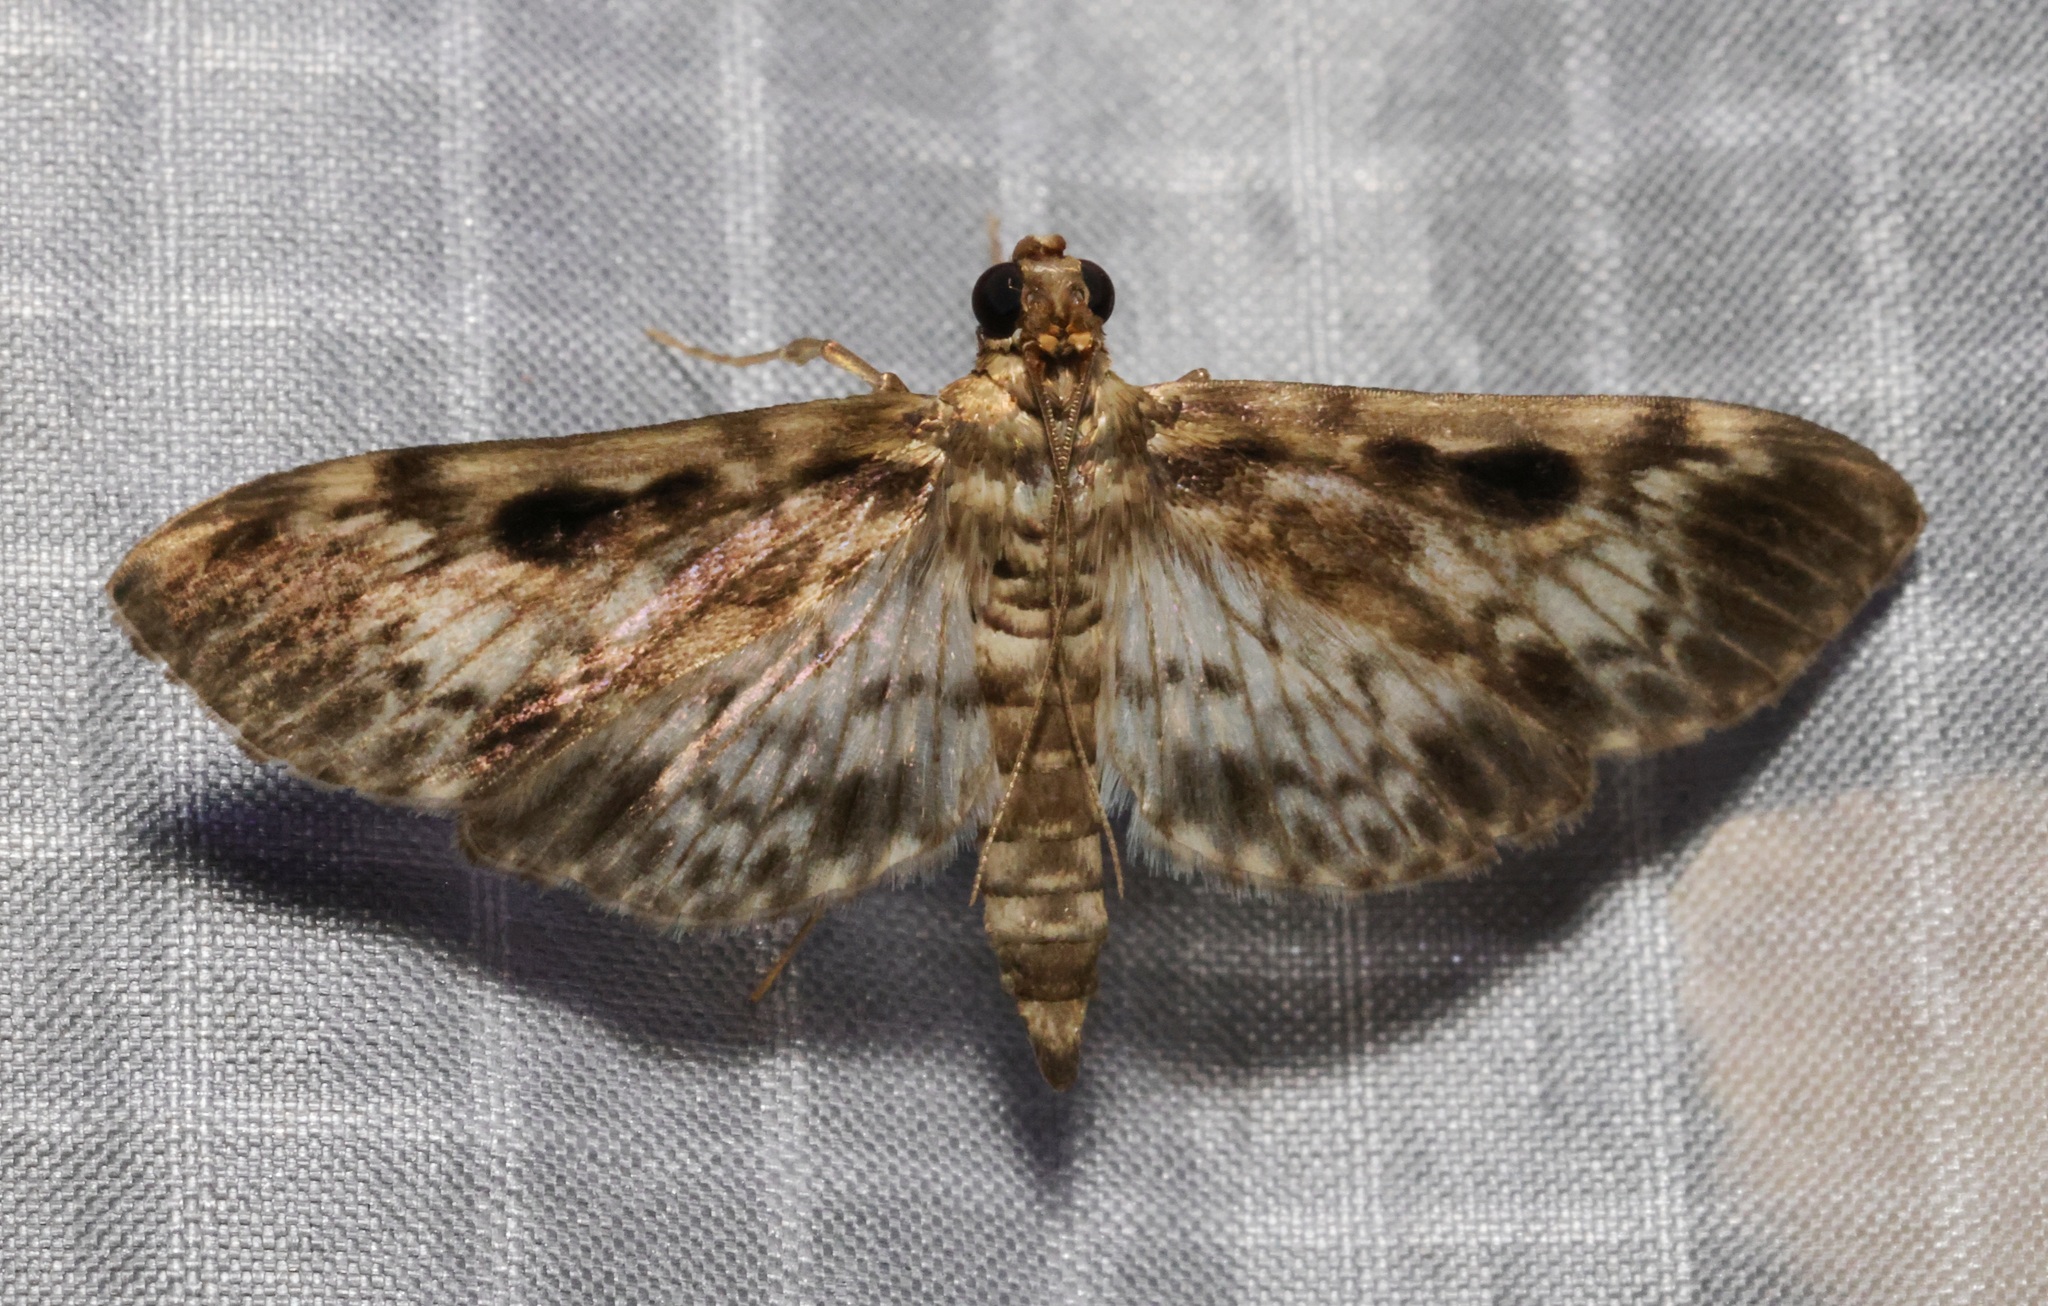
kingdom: Animalia
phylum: Arthropoda
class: Insecta
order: Lepidoptera
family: Crambidae
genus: Rhimphaliodes
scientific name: Rhimphaliodes macrostigma
